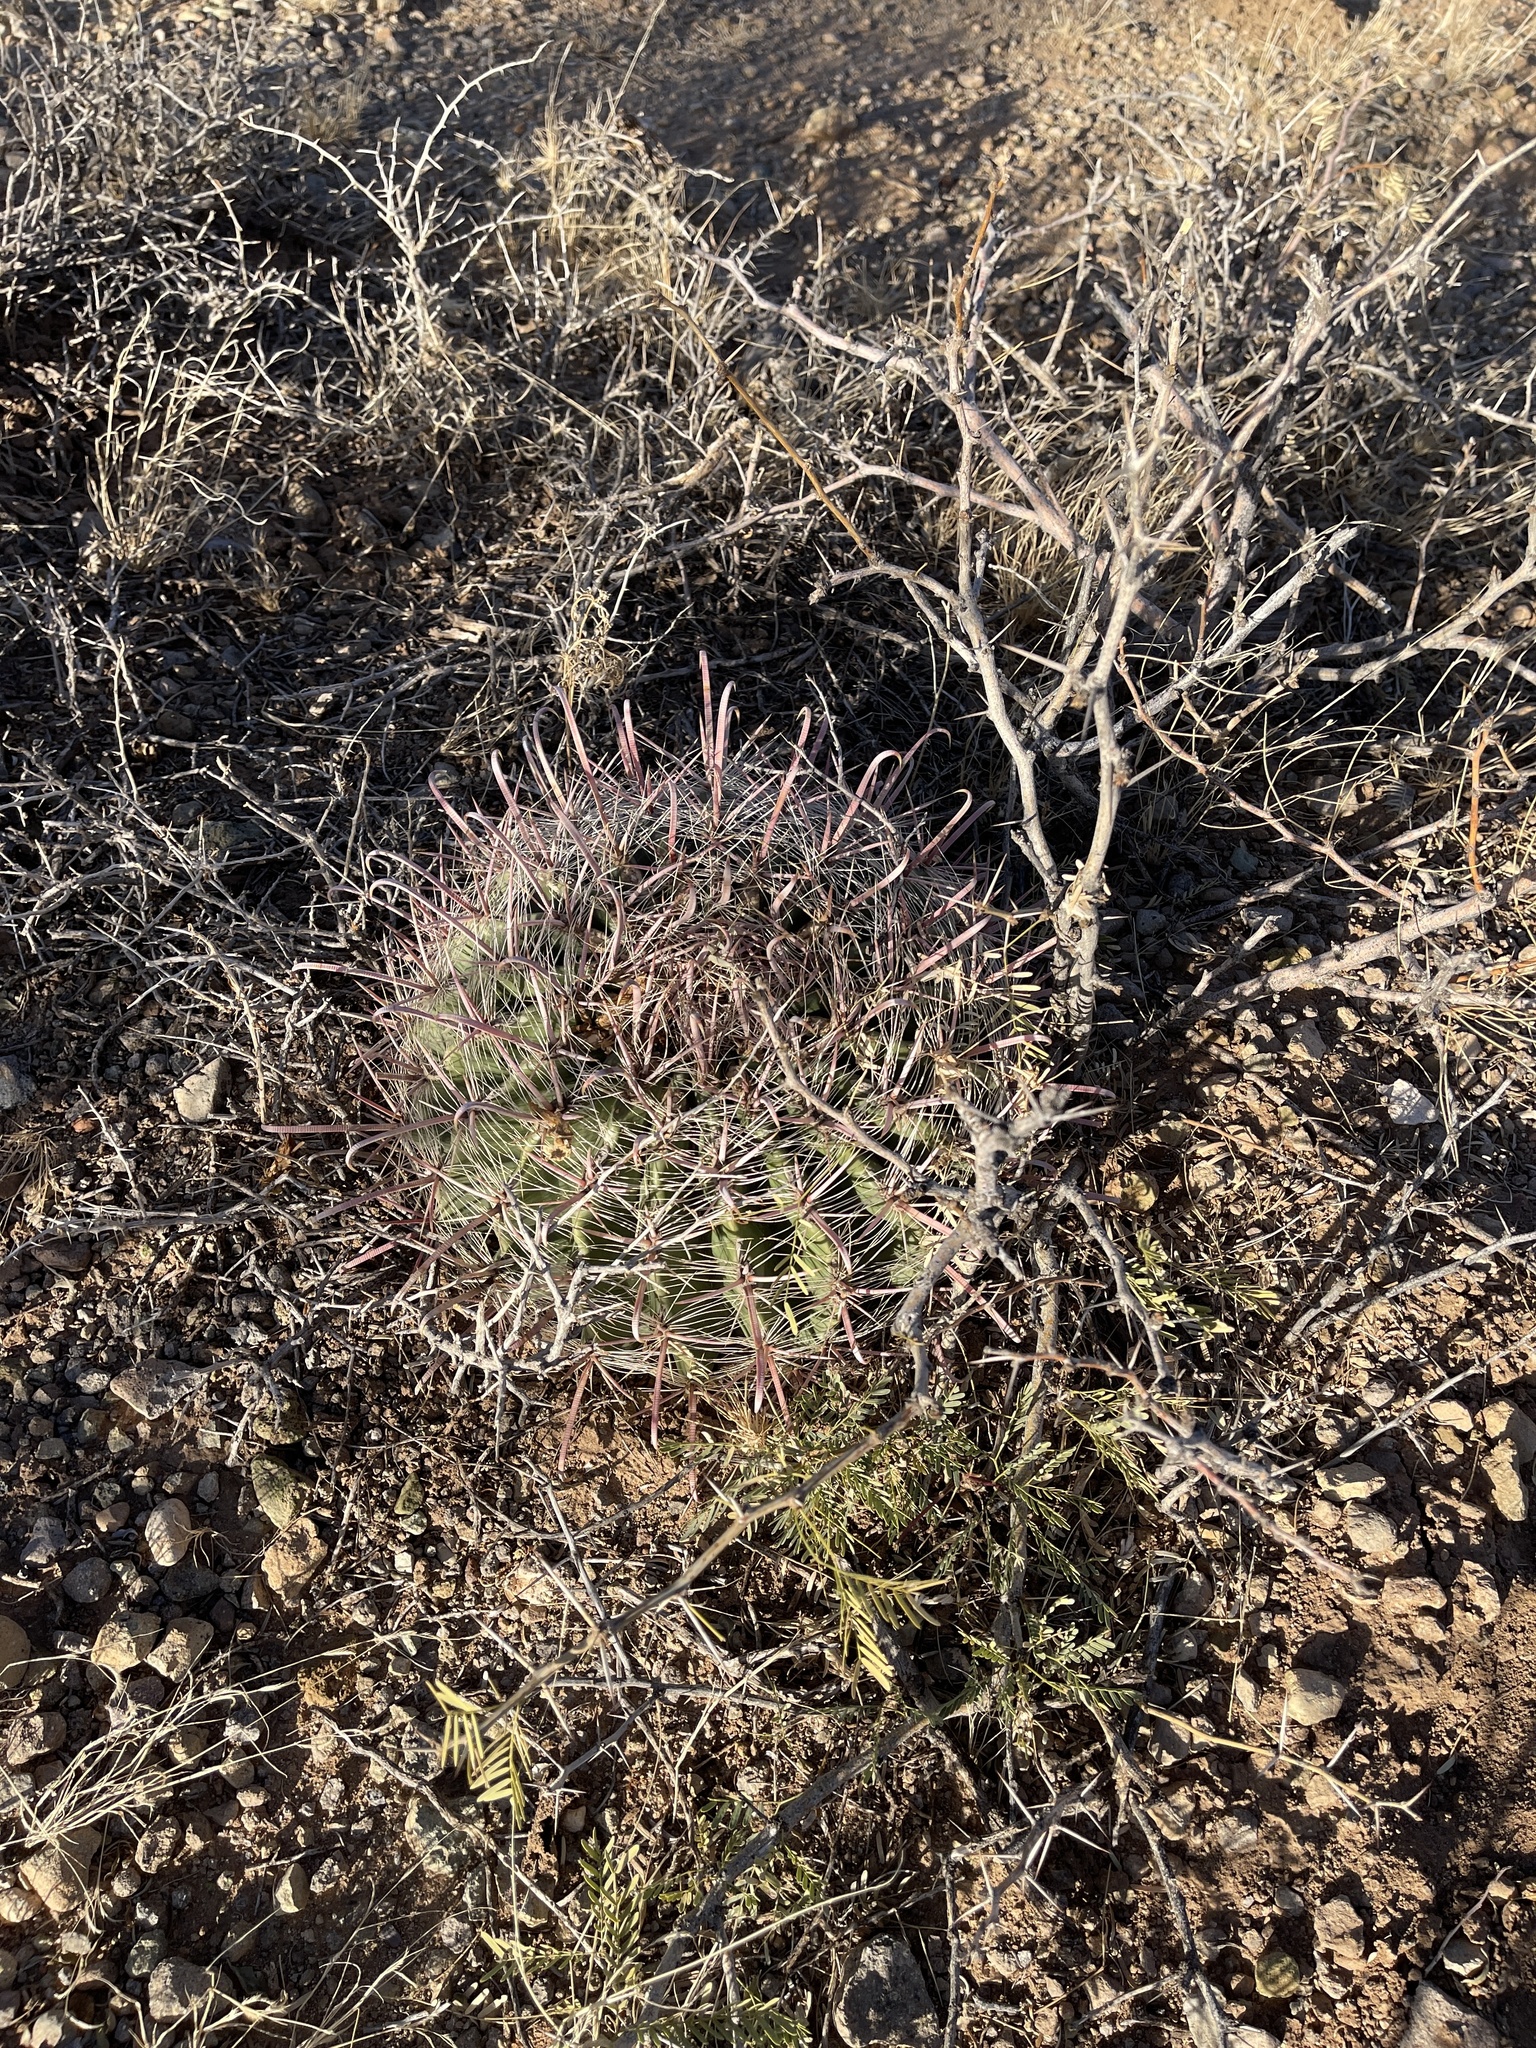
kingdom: Plantae
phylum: Tracheophyta
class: Magnoliopsida
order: Caryophyllales
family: Cactaceae
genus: Ferocactus
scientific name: Ferocactus wislizeni
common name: Candy barrel cactus
